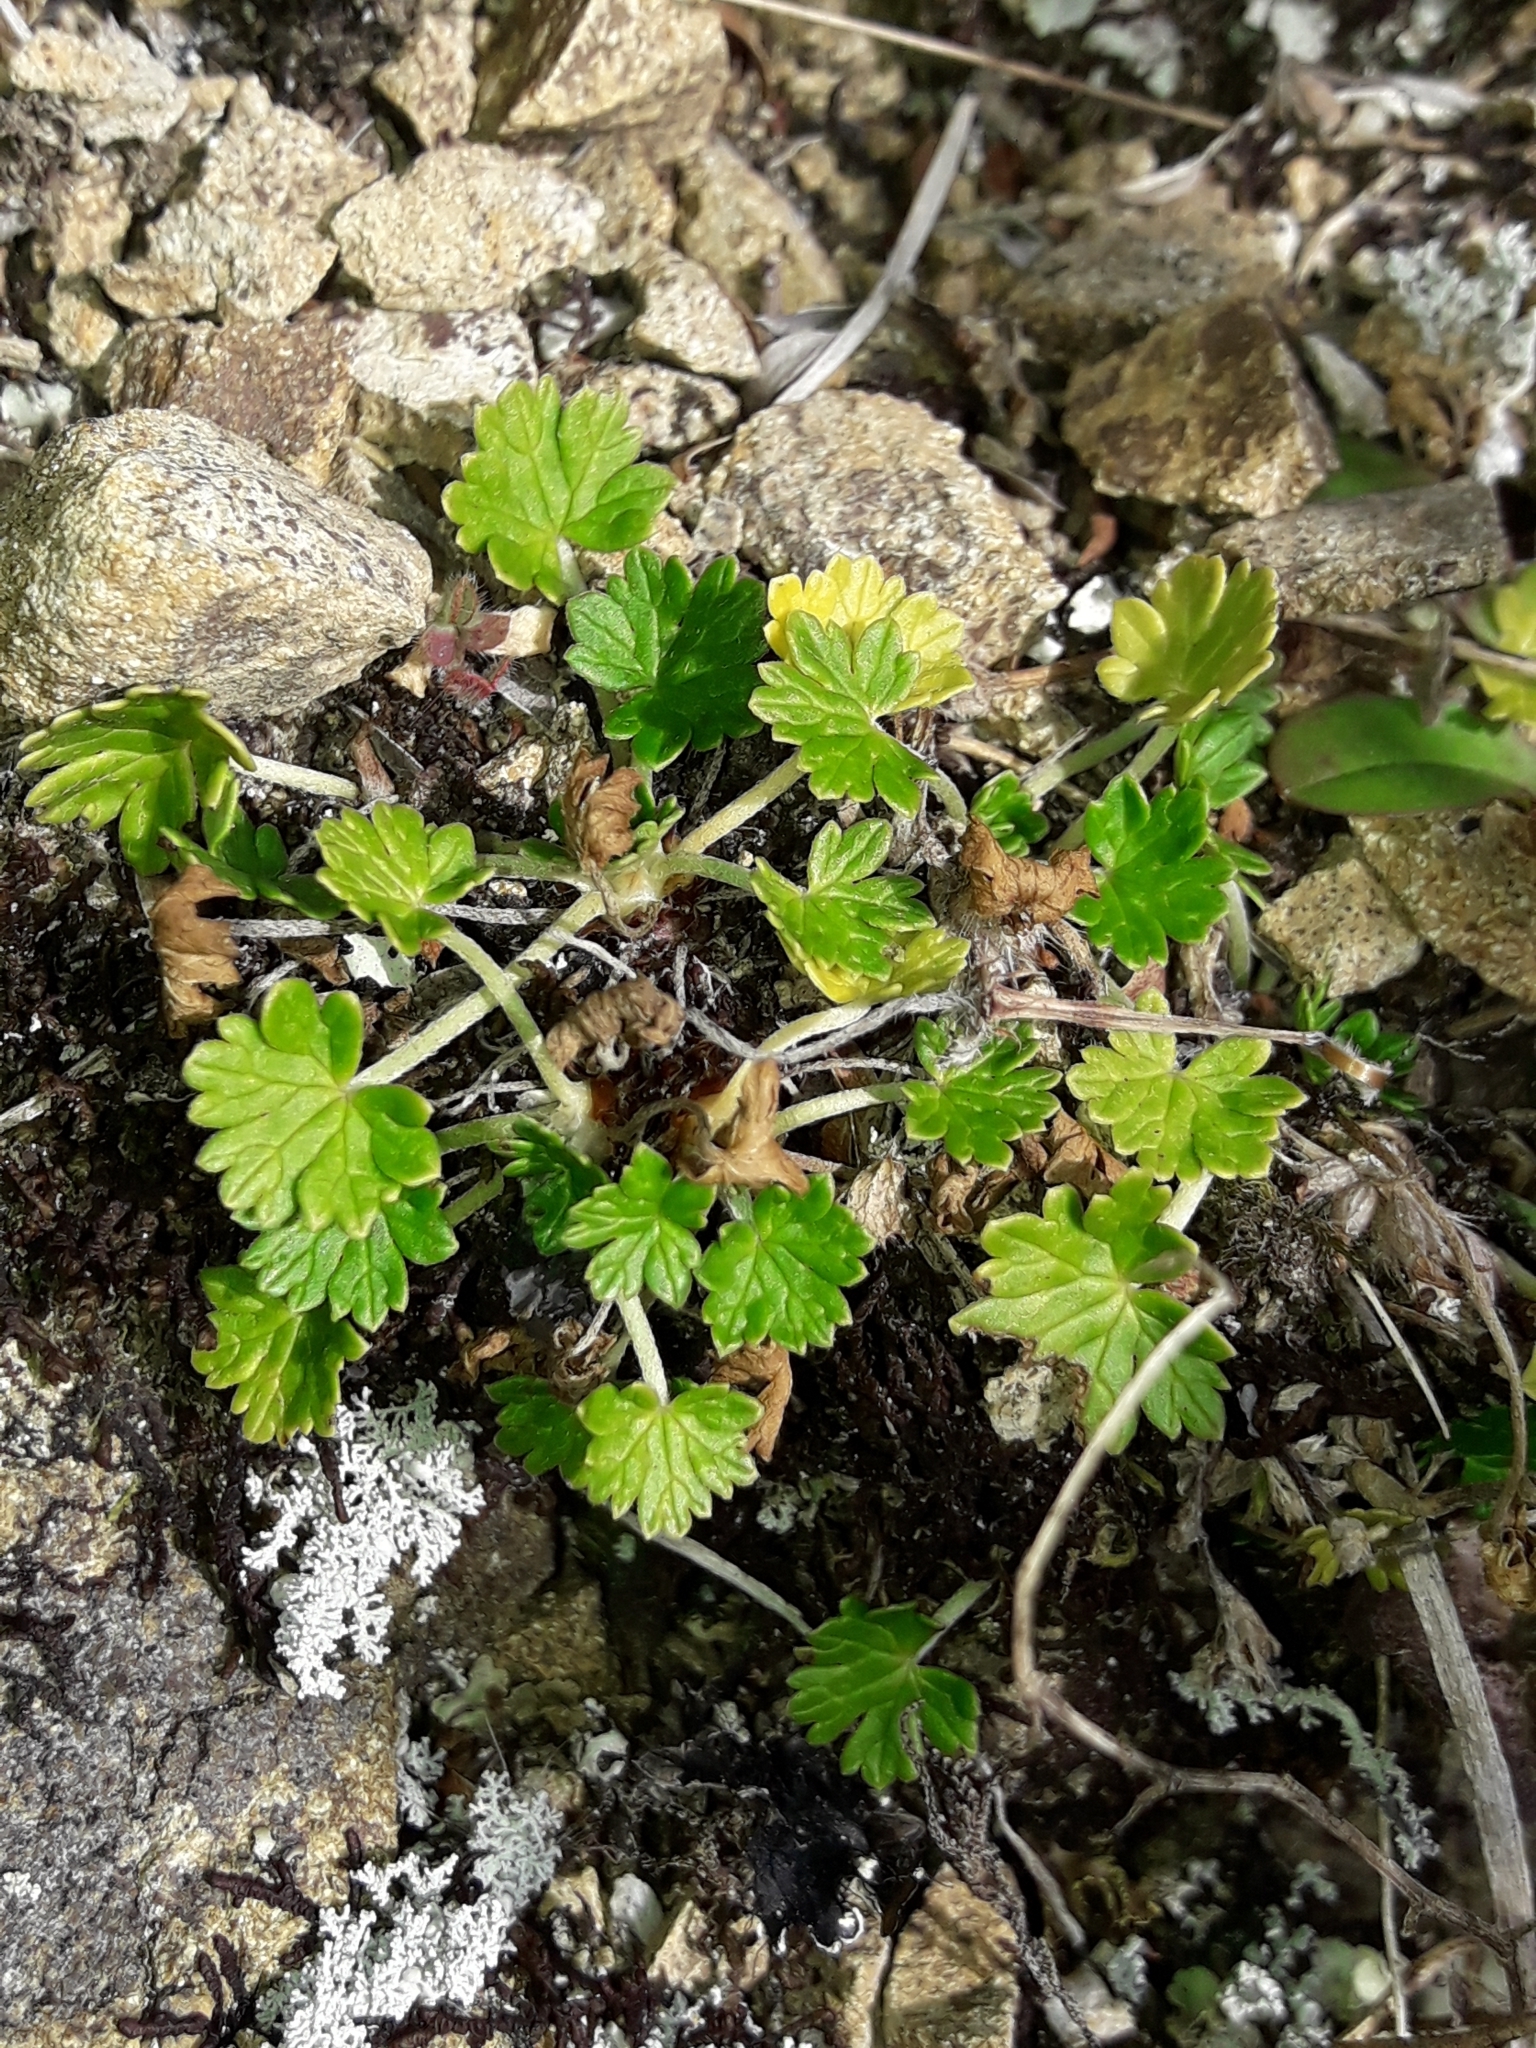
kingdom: Plantae
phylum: Tracheophyta
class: Magnoliopsida
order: Geraniales
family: Geraniaceae
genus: Geranium
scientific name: Geranium brevicaule
